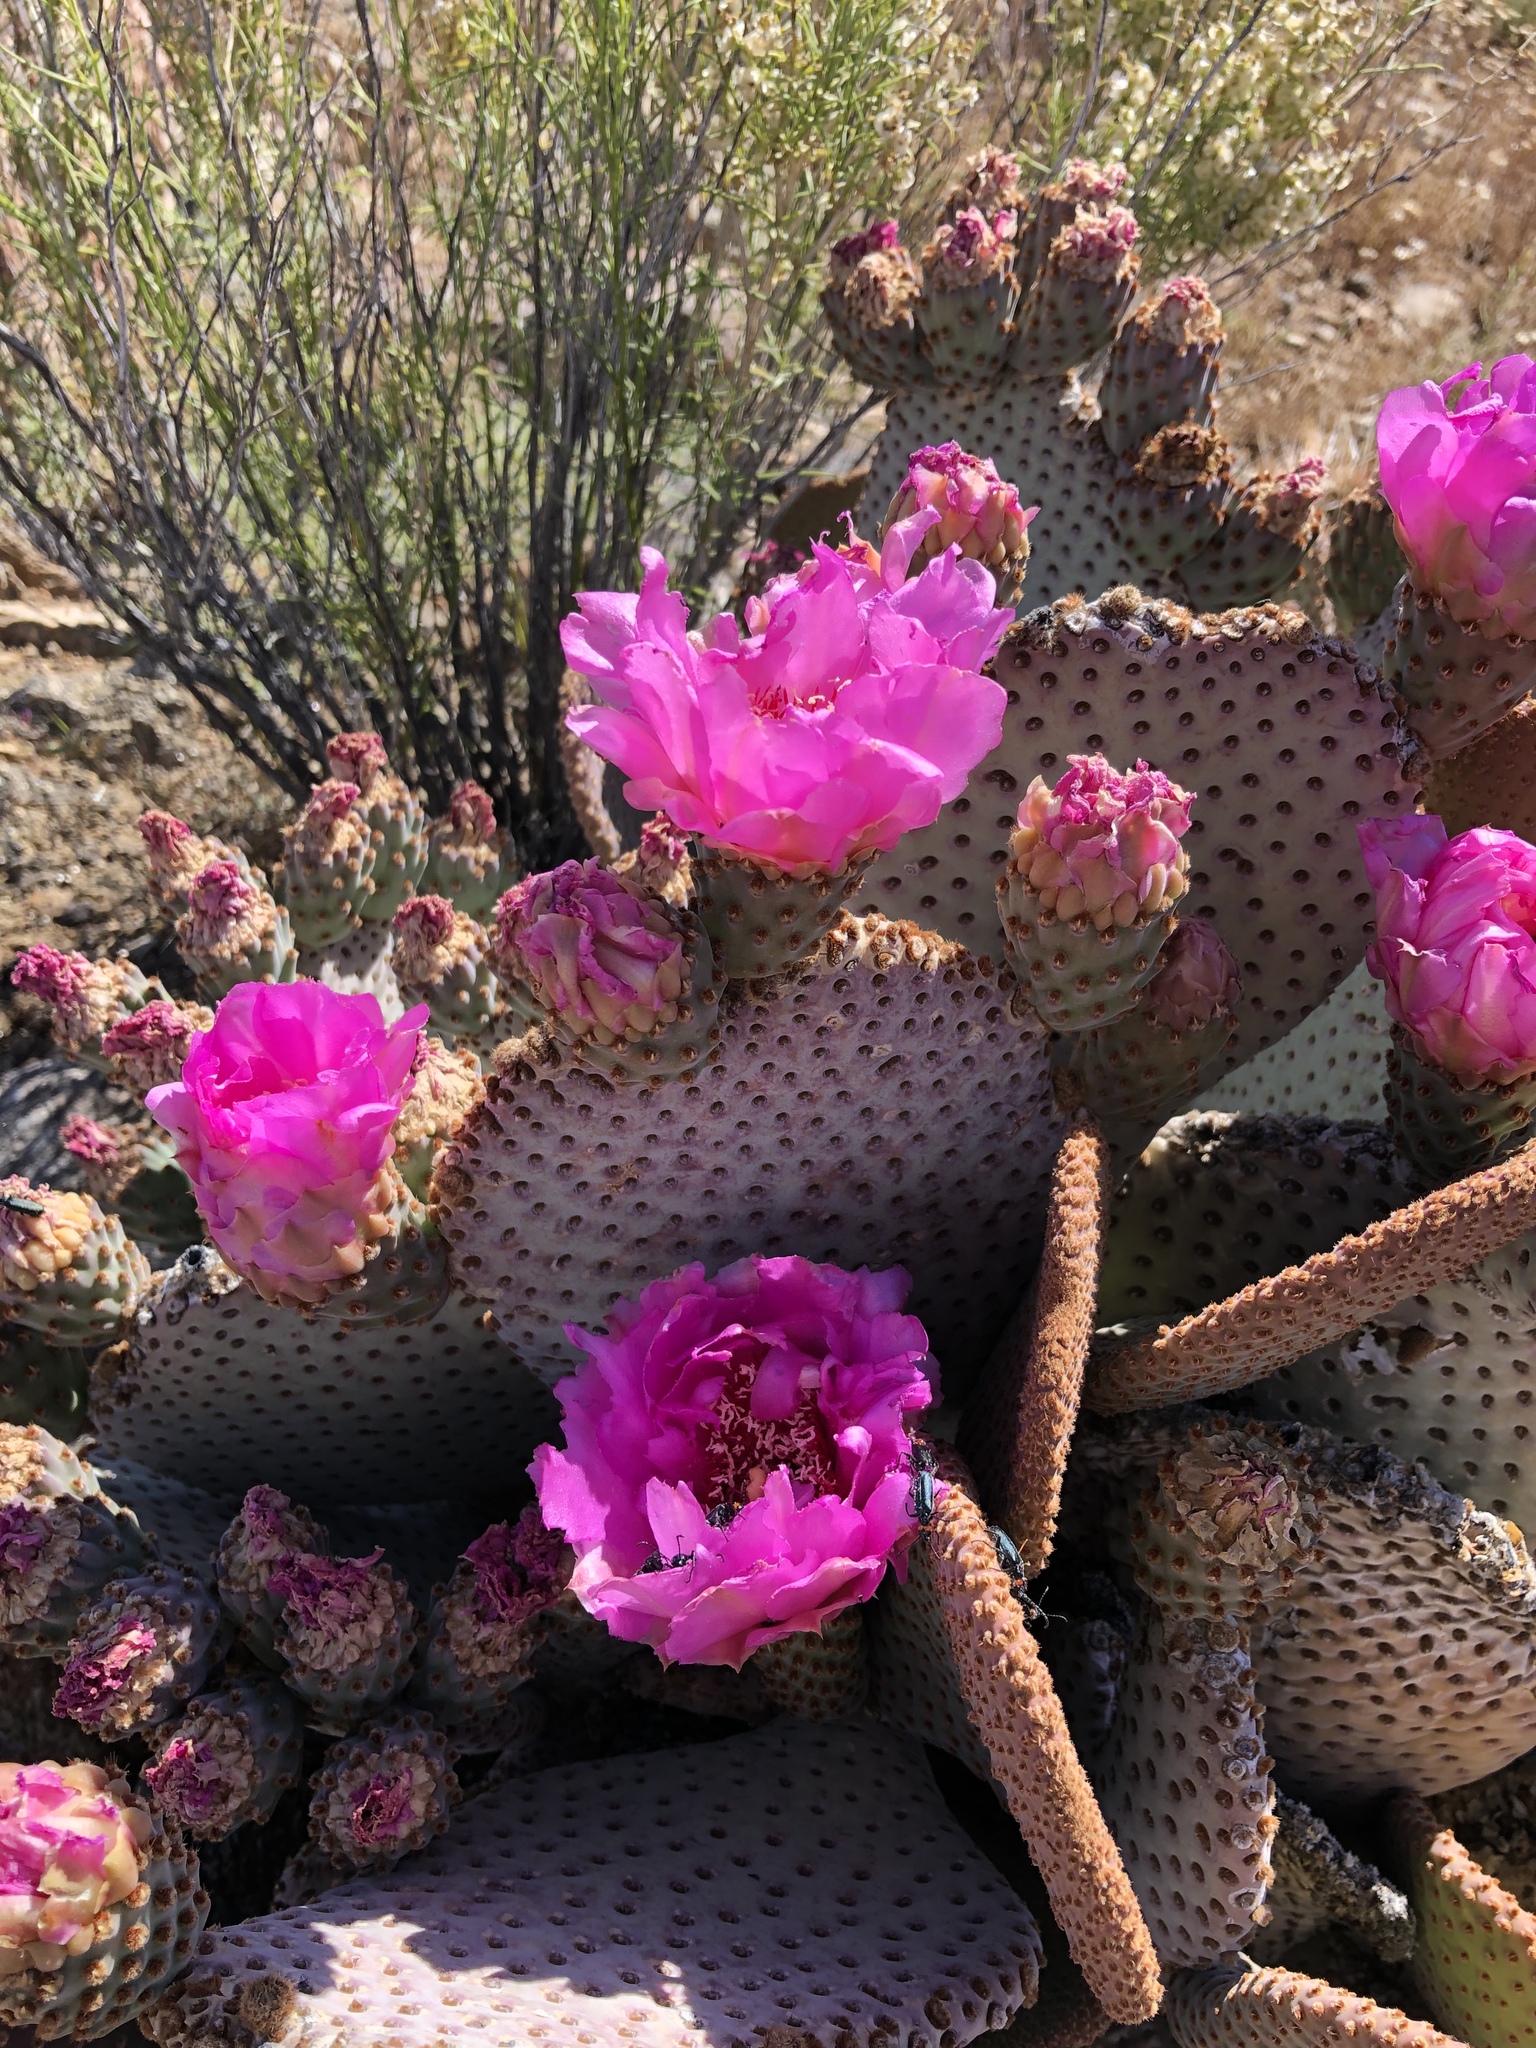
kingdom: Plantae
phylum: Tracheophyta
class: Magnoliopsida
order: Caryophyllales
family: Cactaceae
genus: Opuntia
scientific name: Opuntia basilaris
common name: Beavertail prickly-pear
